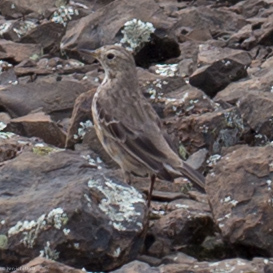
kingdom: Animalia
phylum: Chordata
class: Aves
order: Passeriformes
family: Motacillidae
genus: Anthus
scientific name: Anthus rubescens
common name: Buff-bellied pipit
